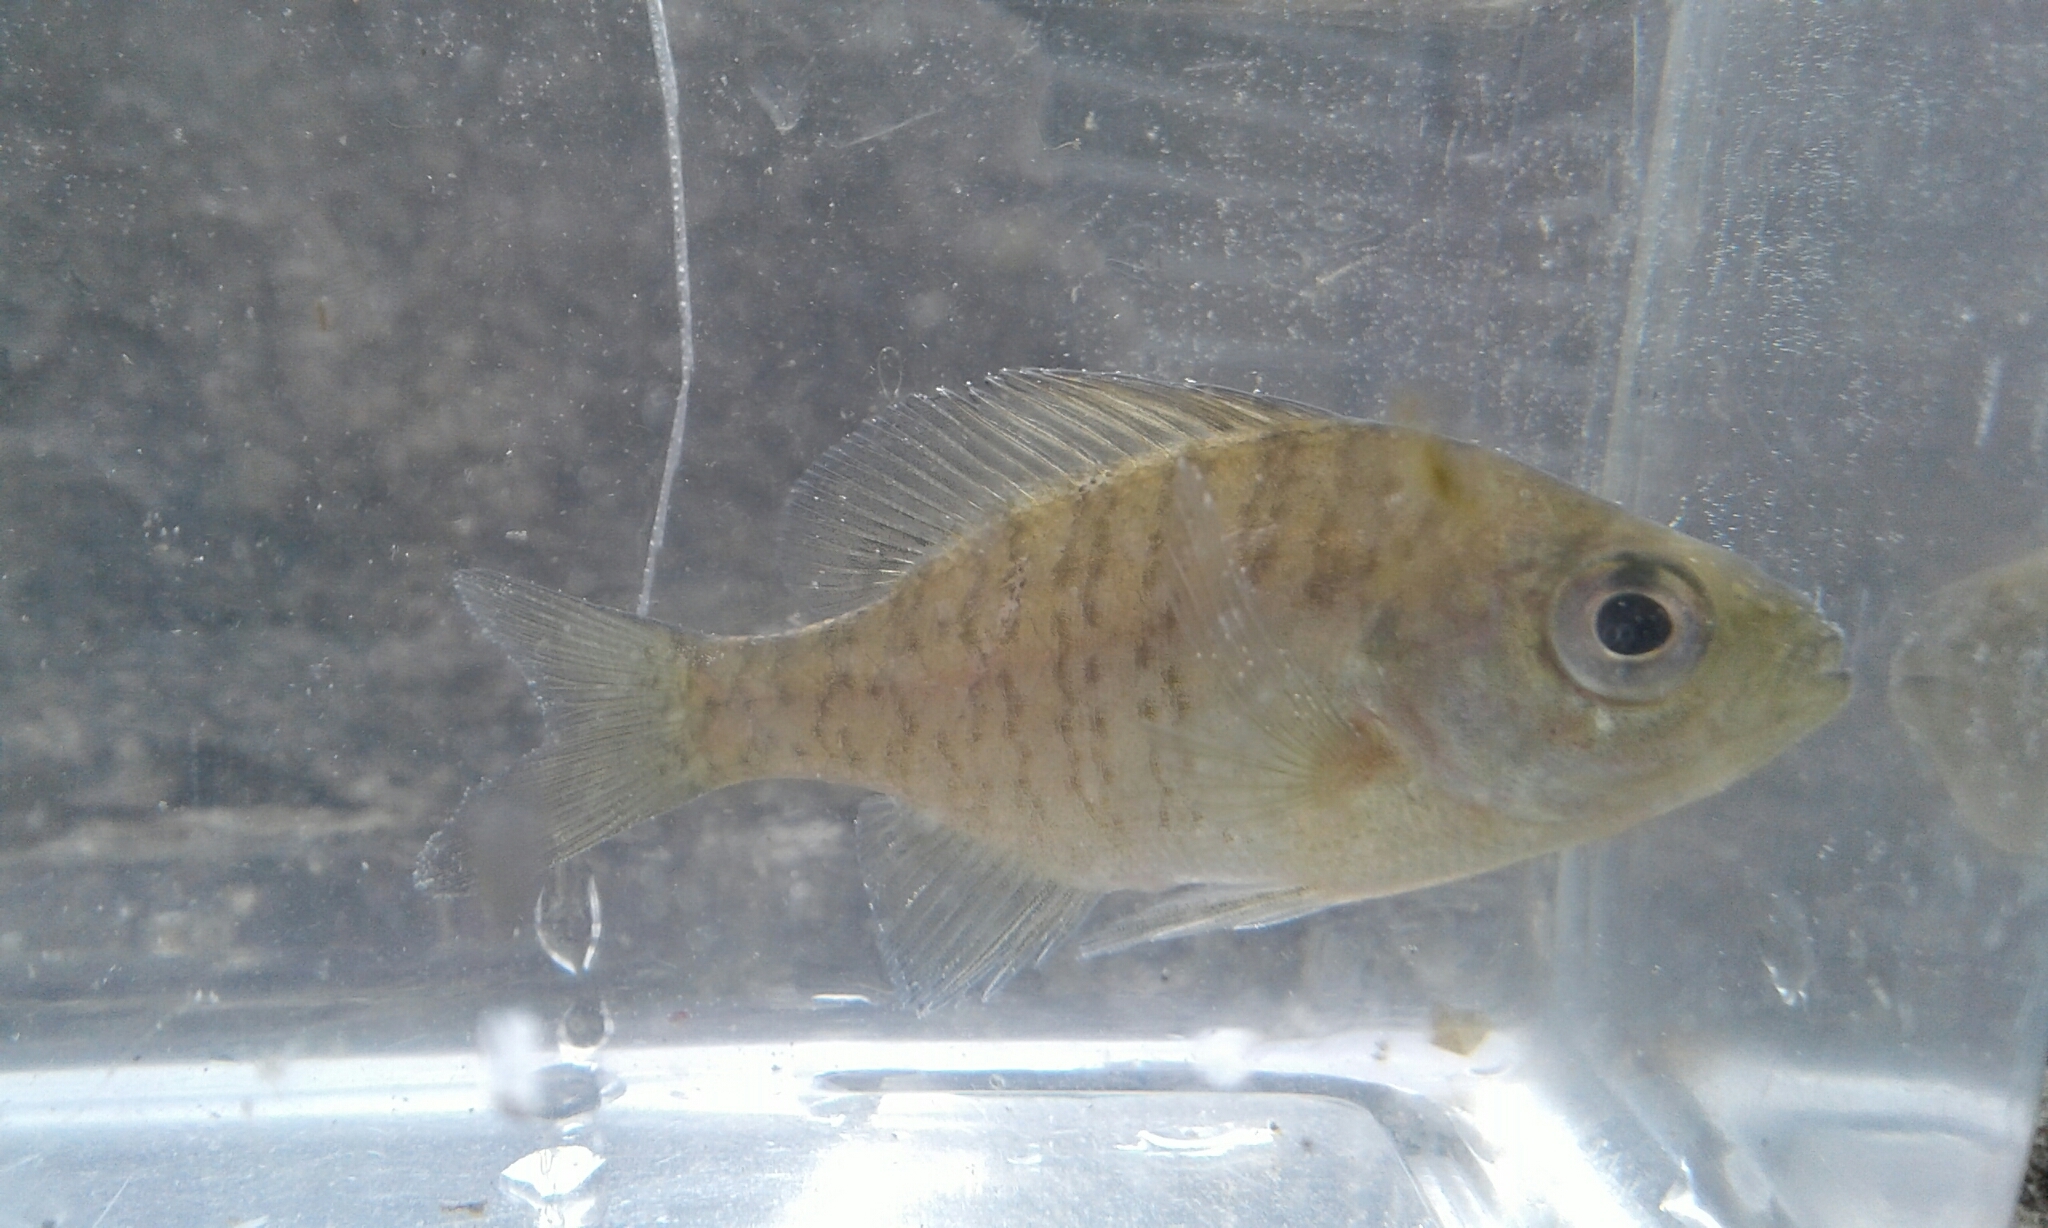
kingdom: Animalia
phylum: Chordata
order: Perciformes
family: Centrarchidae
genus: Lepomis
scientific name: Lepomis macrochirus
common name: Bluegill
